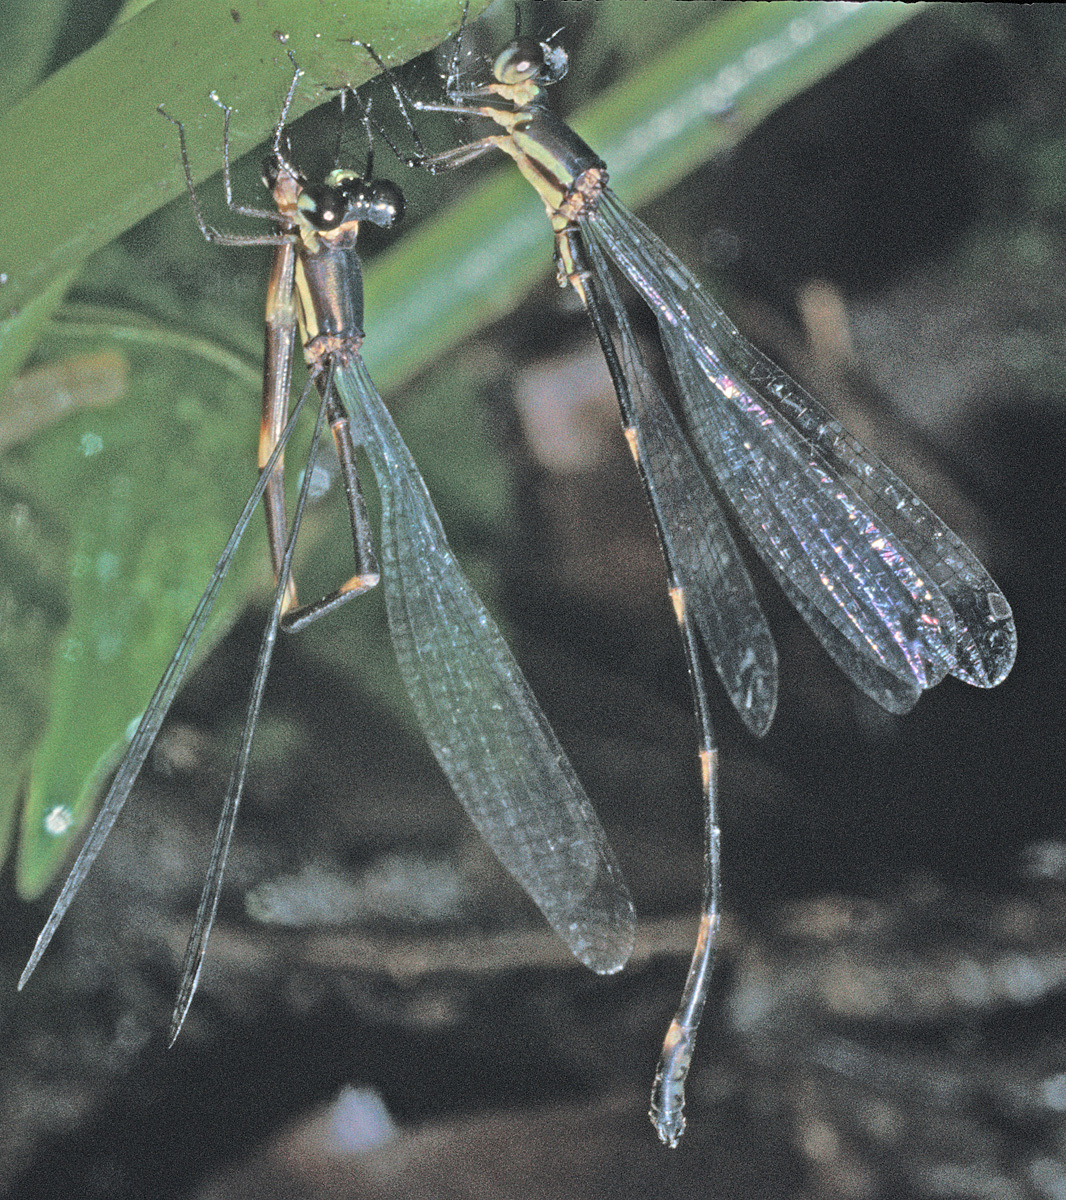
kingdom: Animalia
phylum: Arthropoda
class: Insecta
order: Odonata
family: Platystictidae
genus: Palaemnema
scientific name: Palaemnema chiriquita
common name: Chiriquita shadowdamsel
